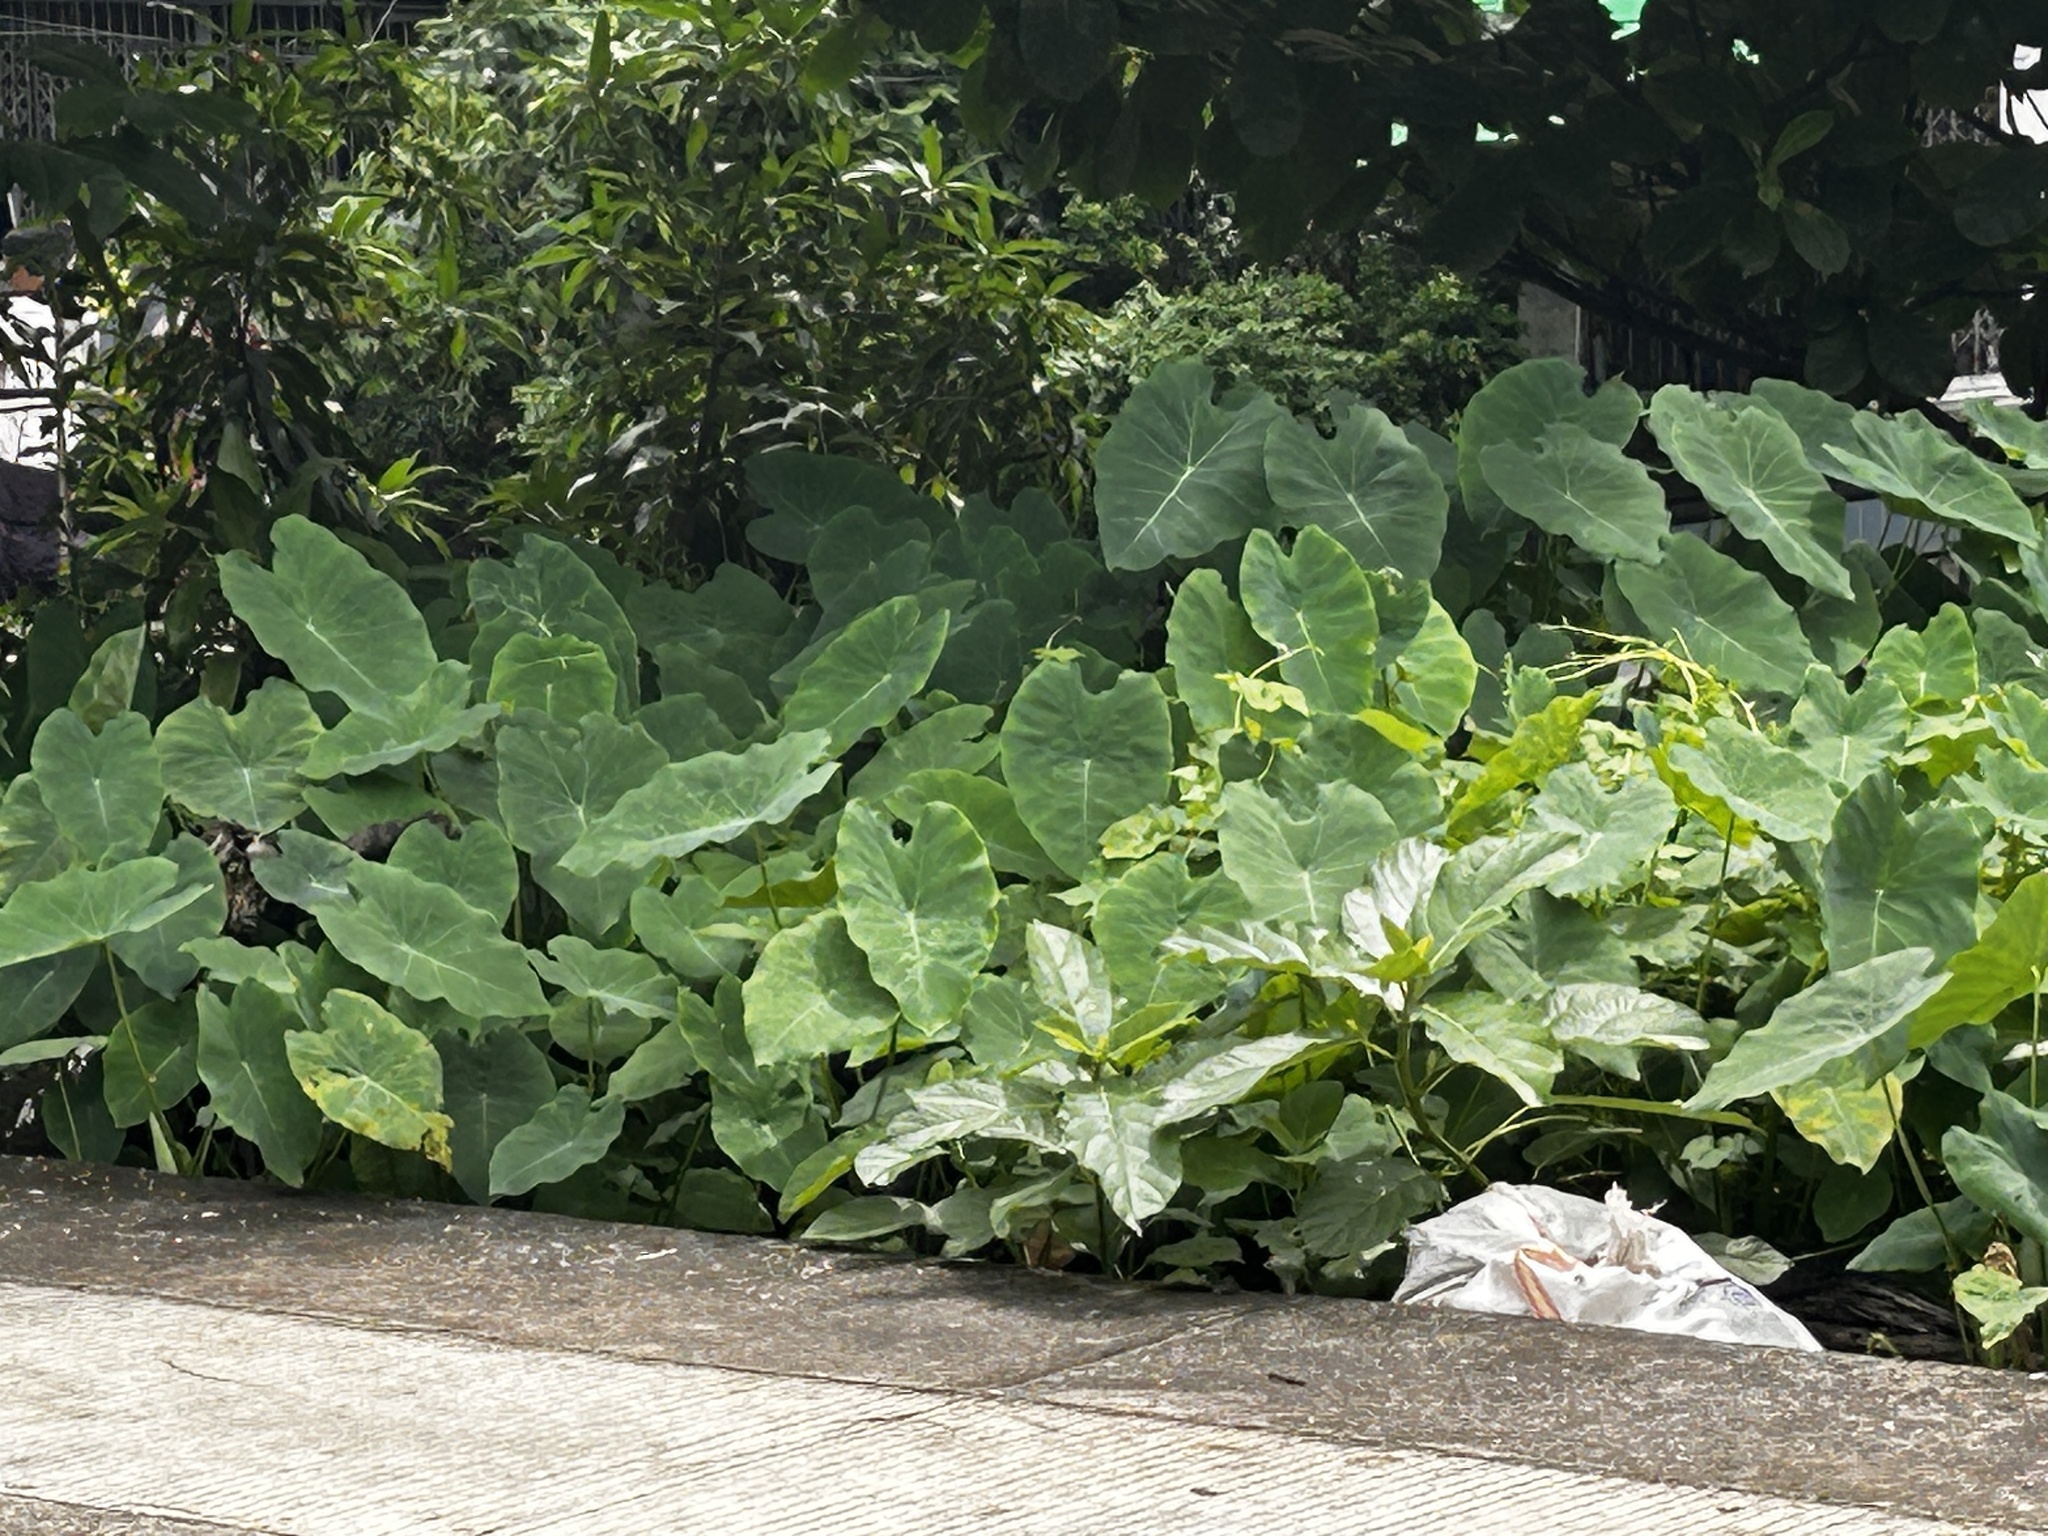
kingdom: Plantae
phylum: Tracheophyta
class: Liliopsida
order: Alismatales
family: Araceae
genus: Colocasia
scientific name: Colocasia esculenta
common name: Taro
